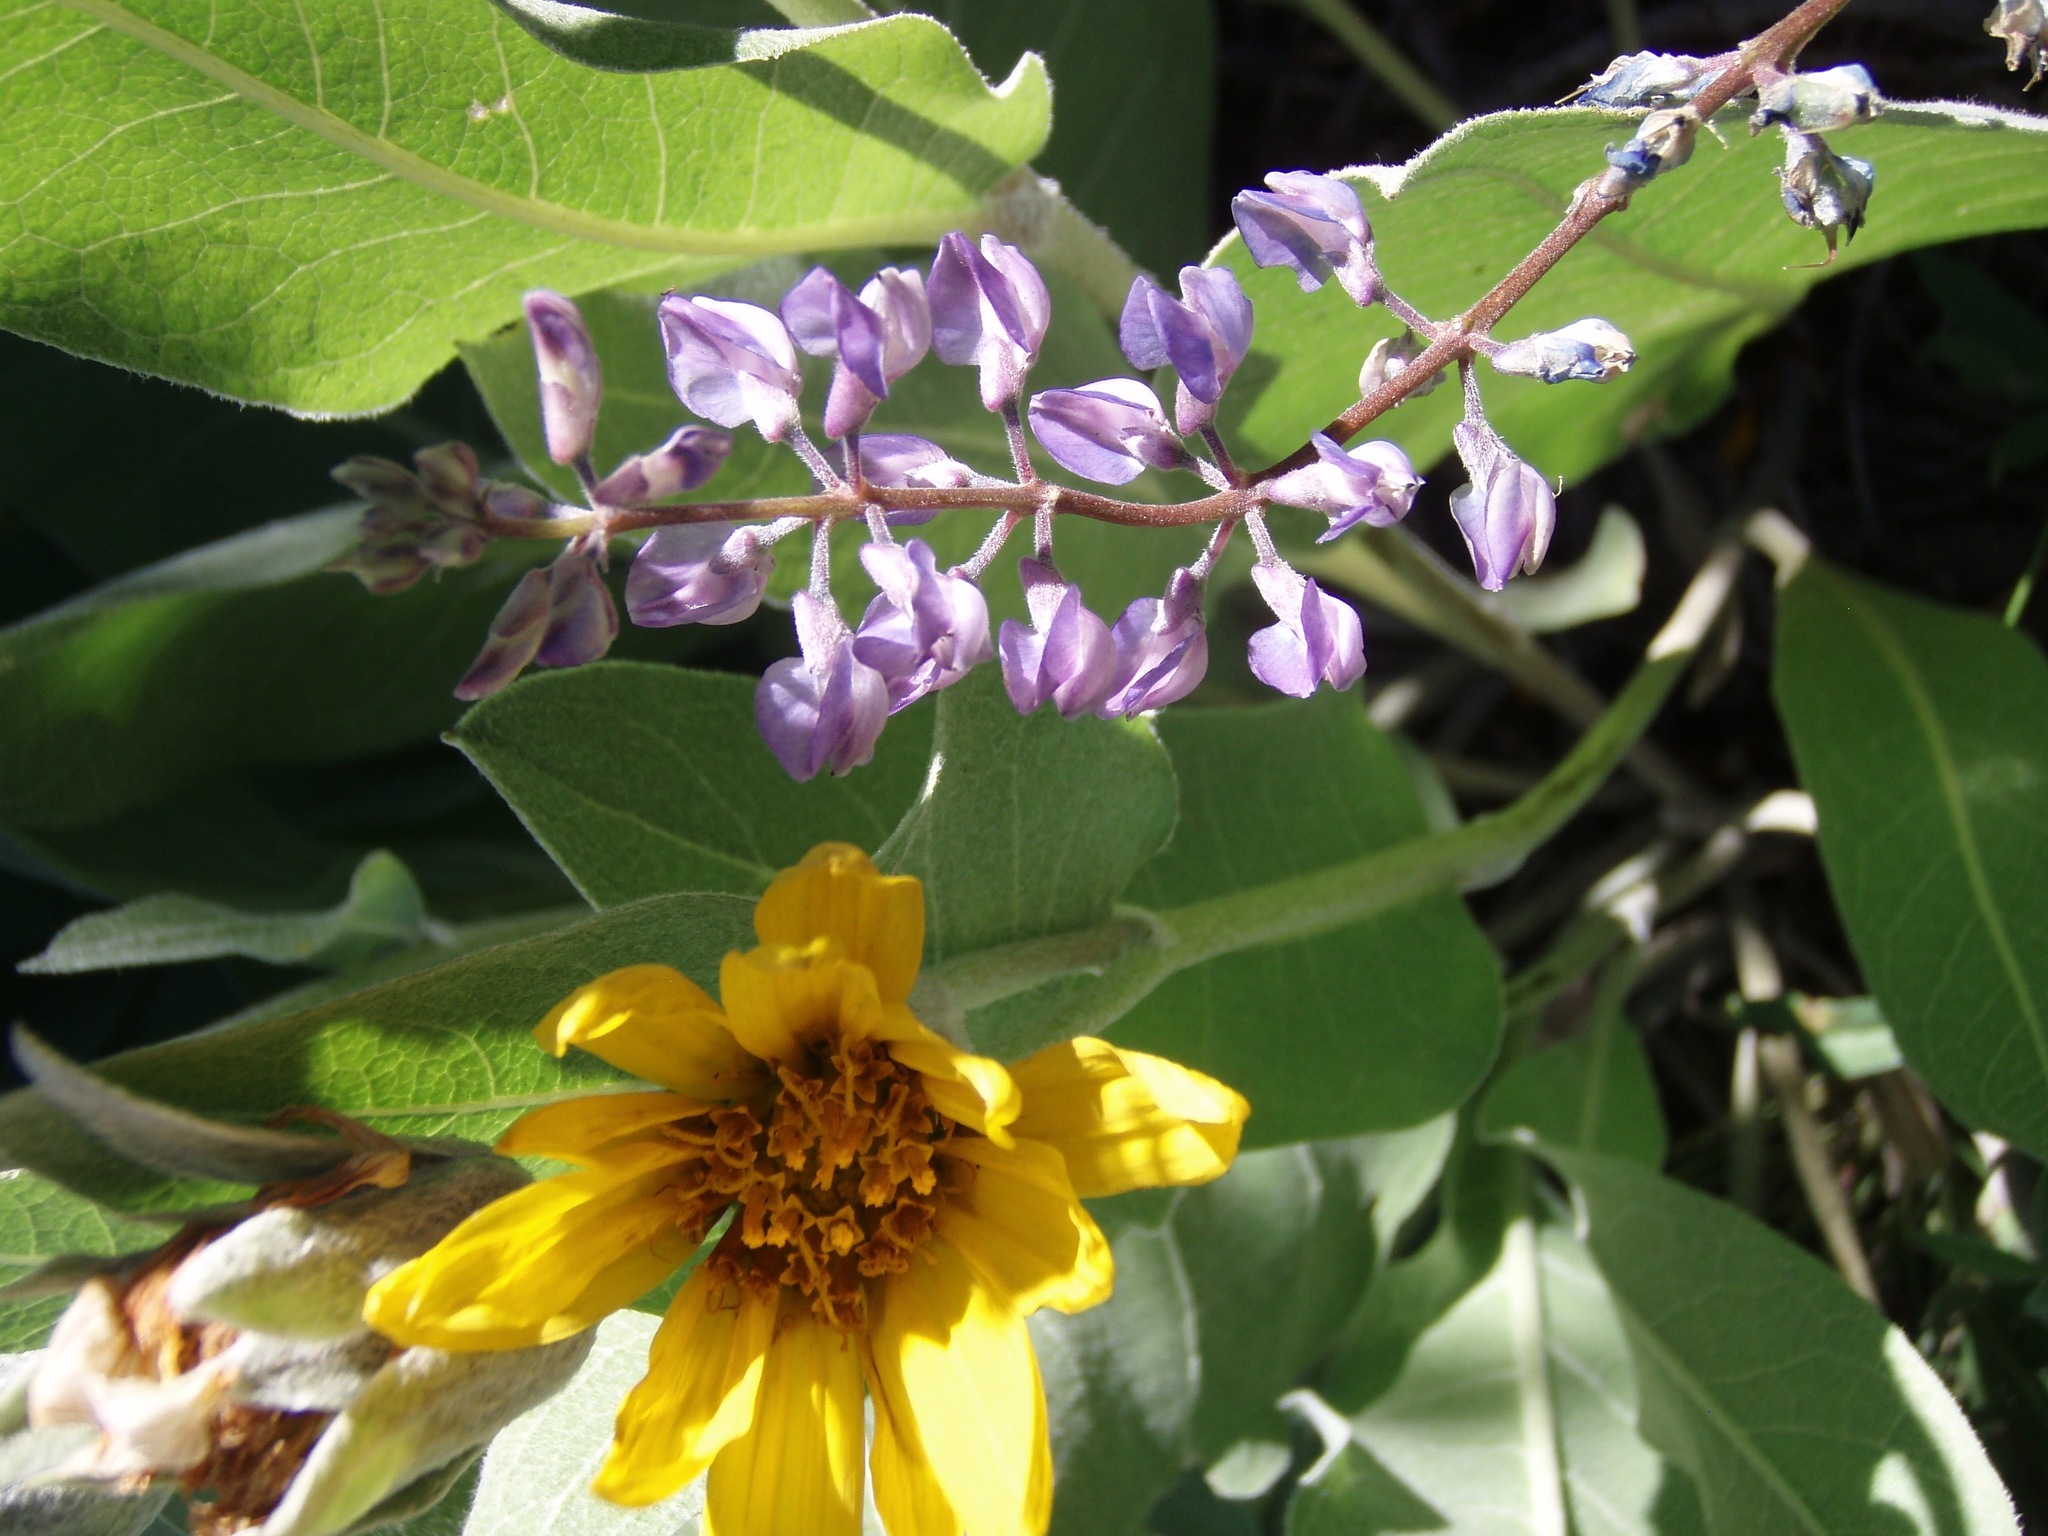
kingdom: Plantae
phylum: Tracheophyta
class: Magnoliopsida
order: Asterales
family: Asteraceae
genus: Wyethia
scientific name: Wyethia mollis
